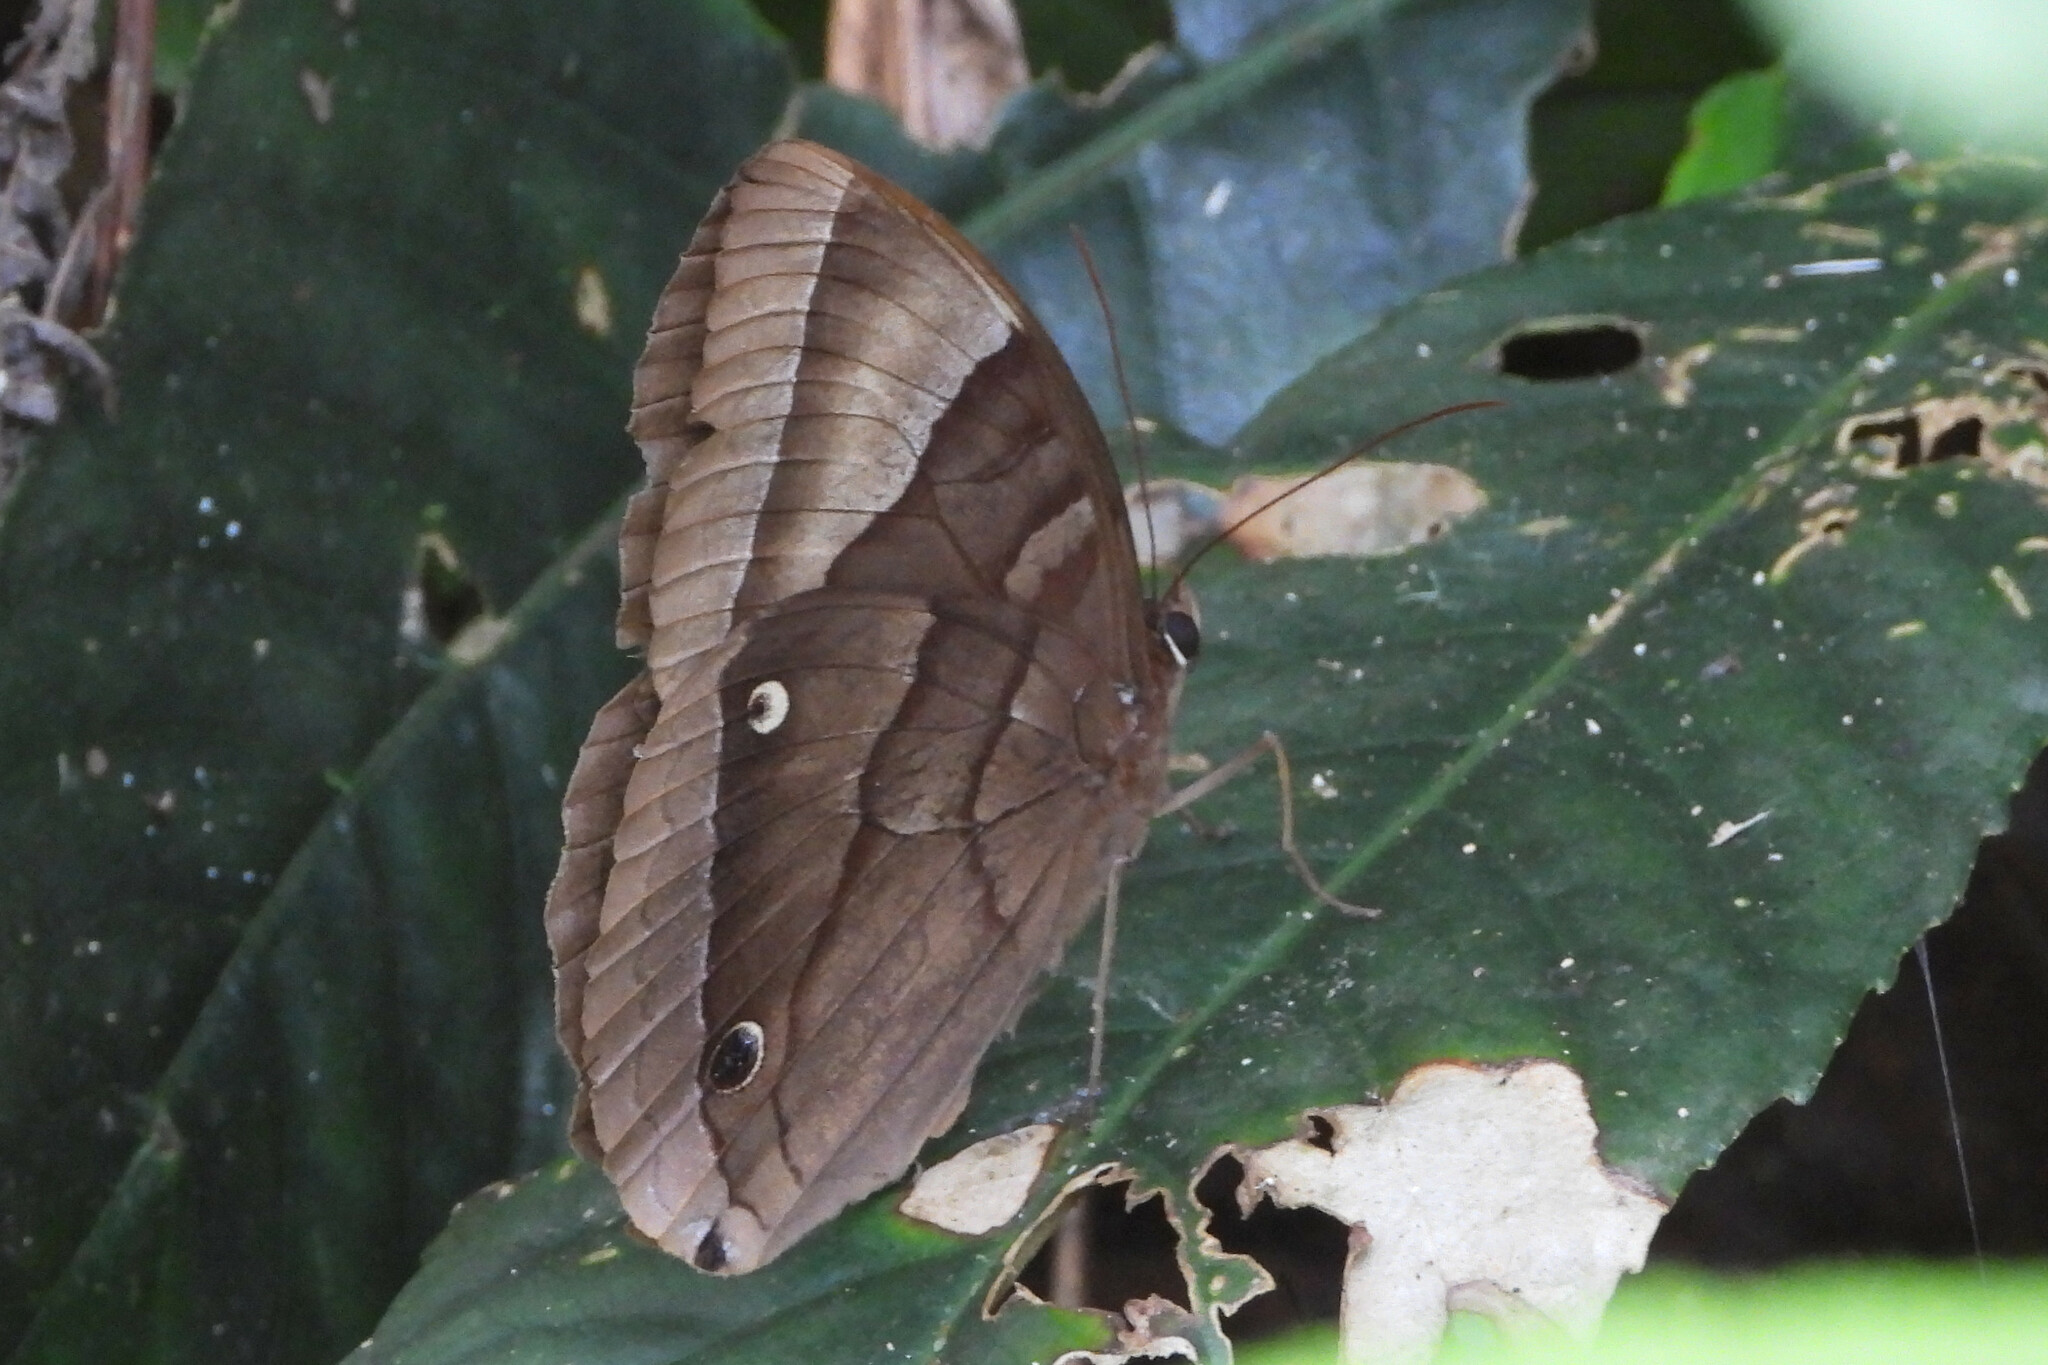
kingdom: Animalia
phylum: Arthropoda
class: Insecta
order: Lepidoptera
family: Nymphalidae
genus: Thaumantis
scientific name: Thaumantis diores
